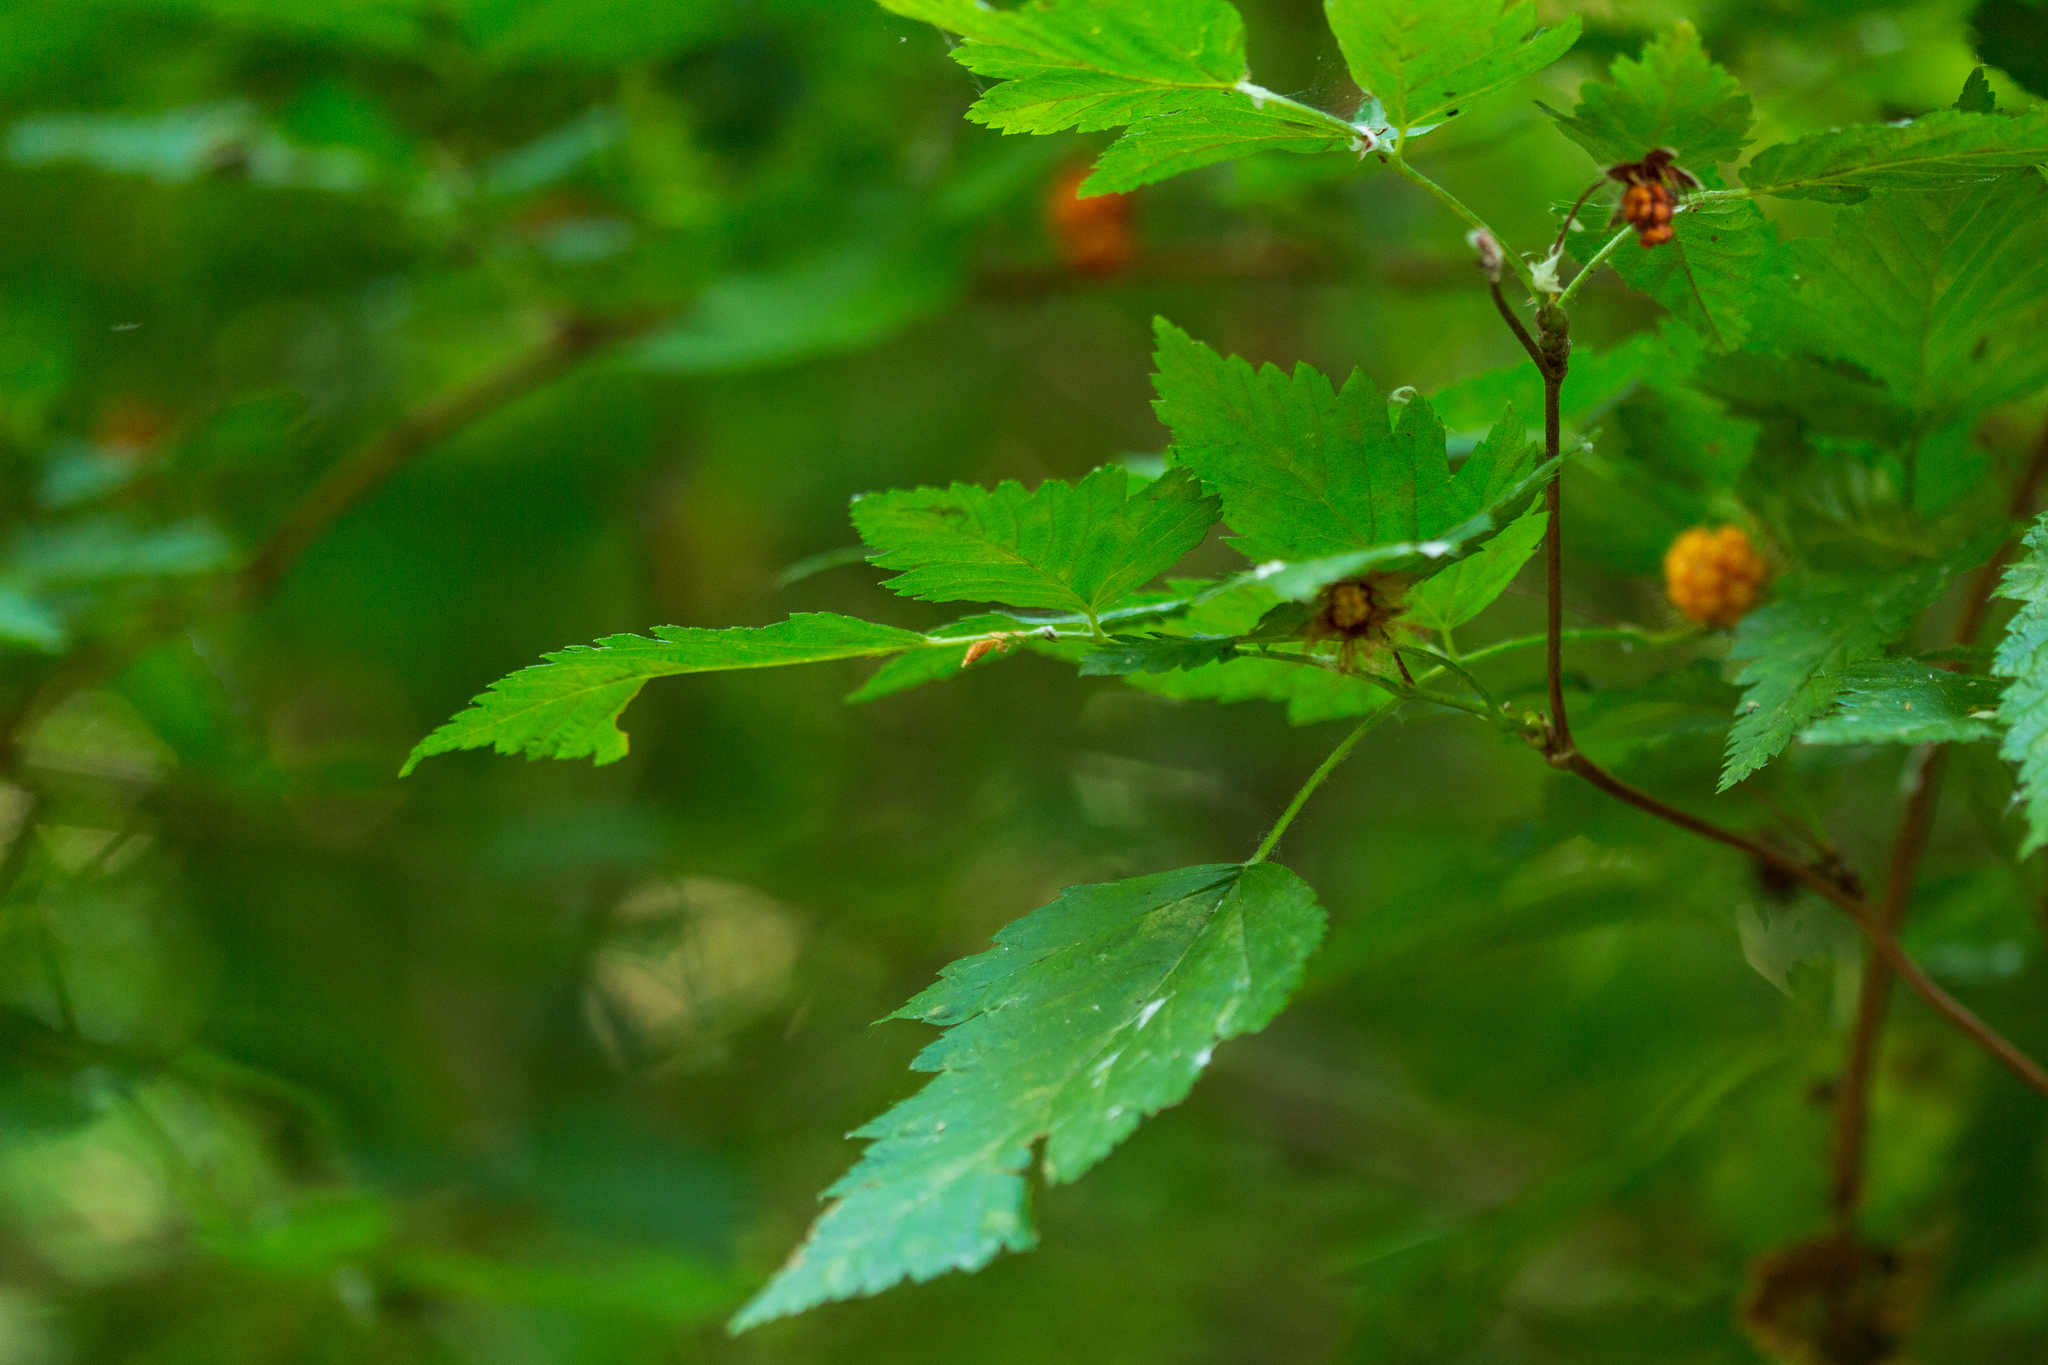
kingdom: Plantae
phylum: Tracheophyta
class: Magnoliopsida
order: Rosales
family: Rosaceae
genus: Rubus
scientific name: Rubus spectabilis
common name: Salmonberry
